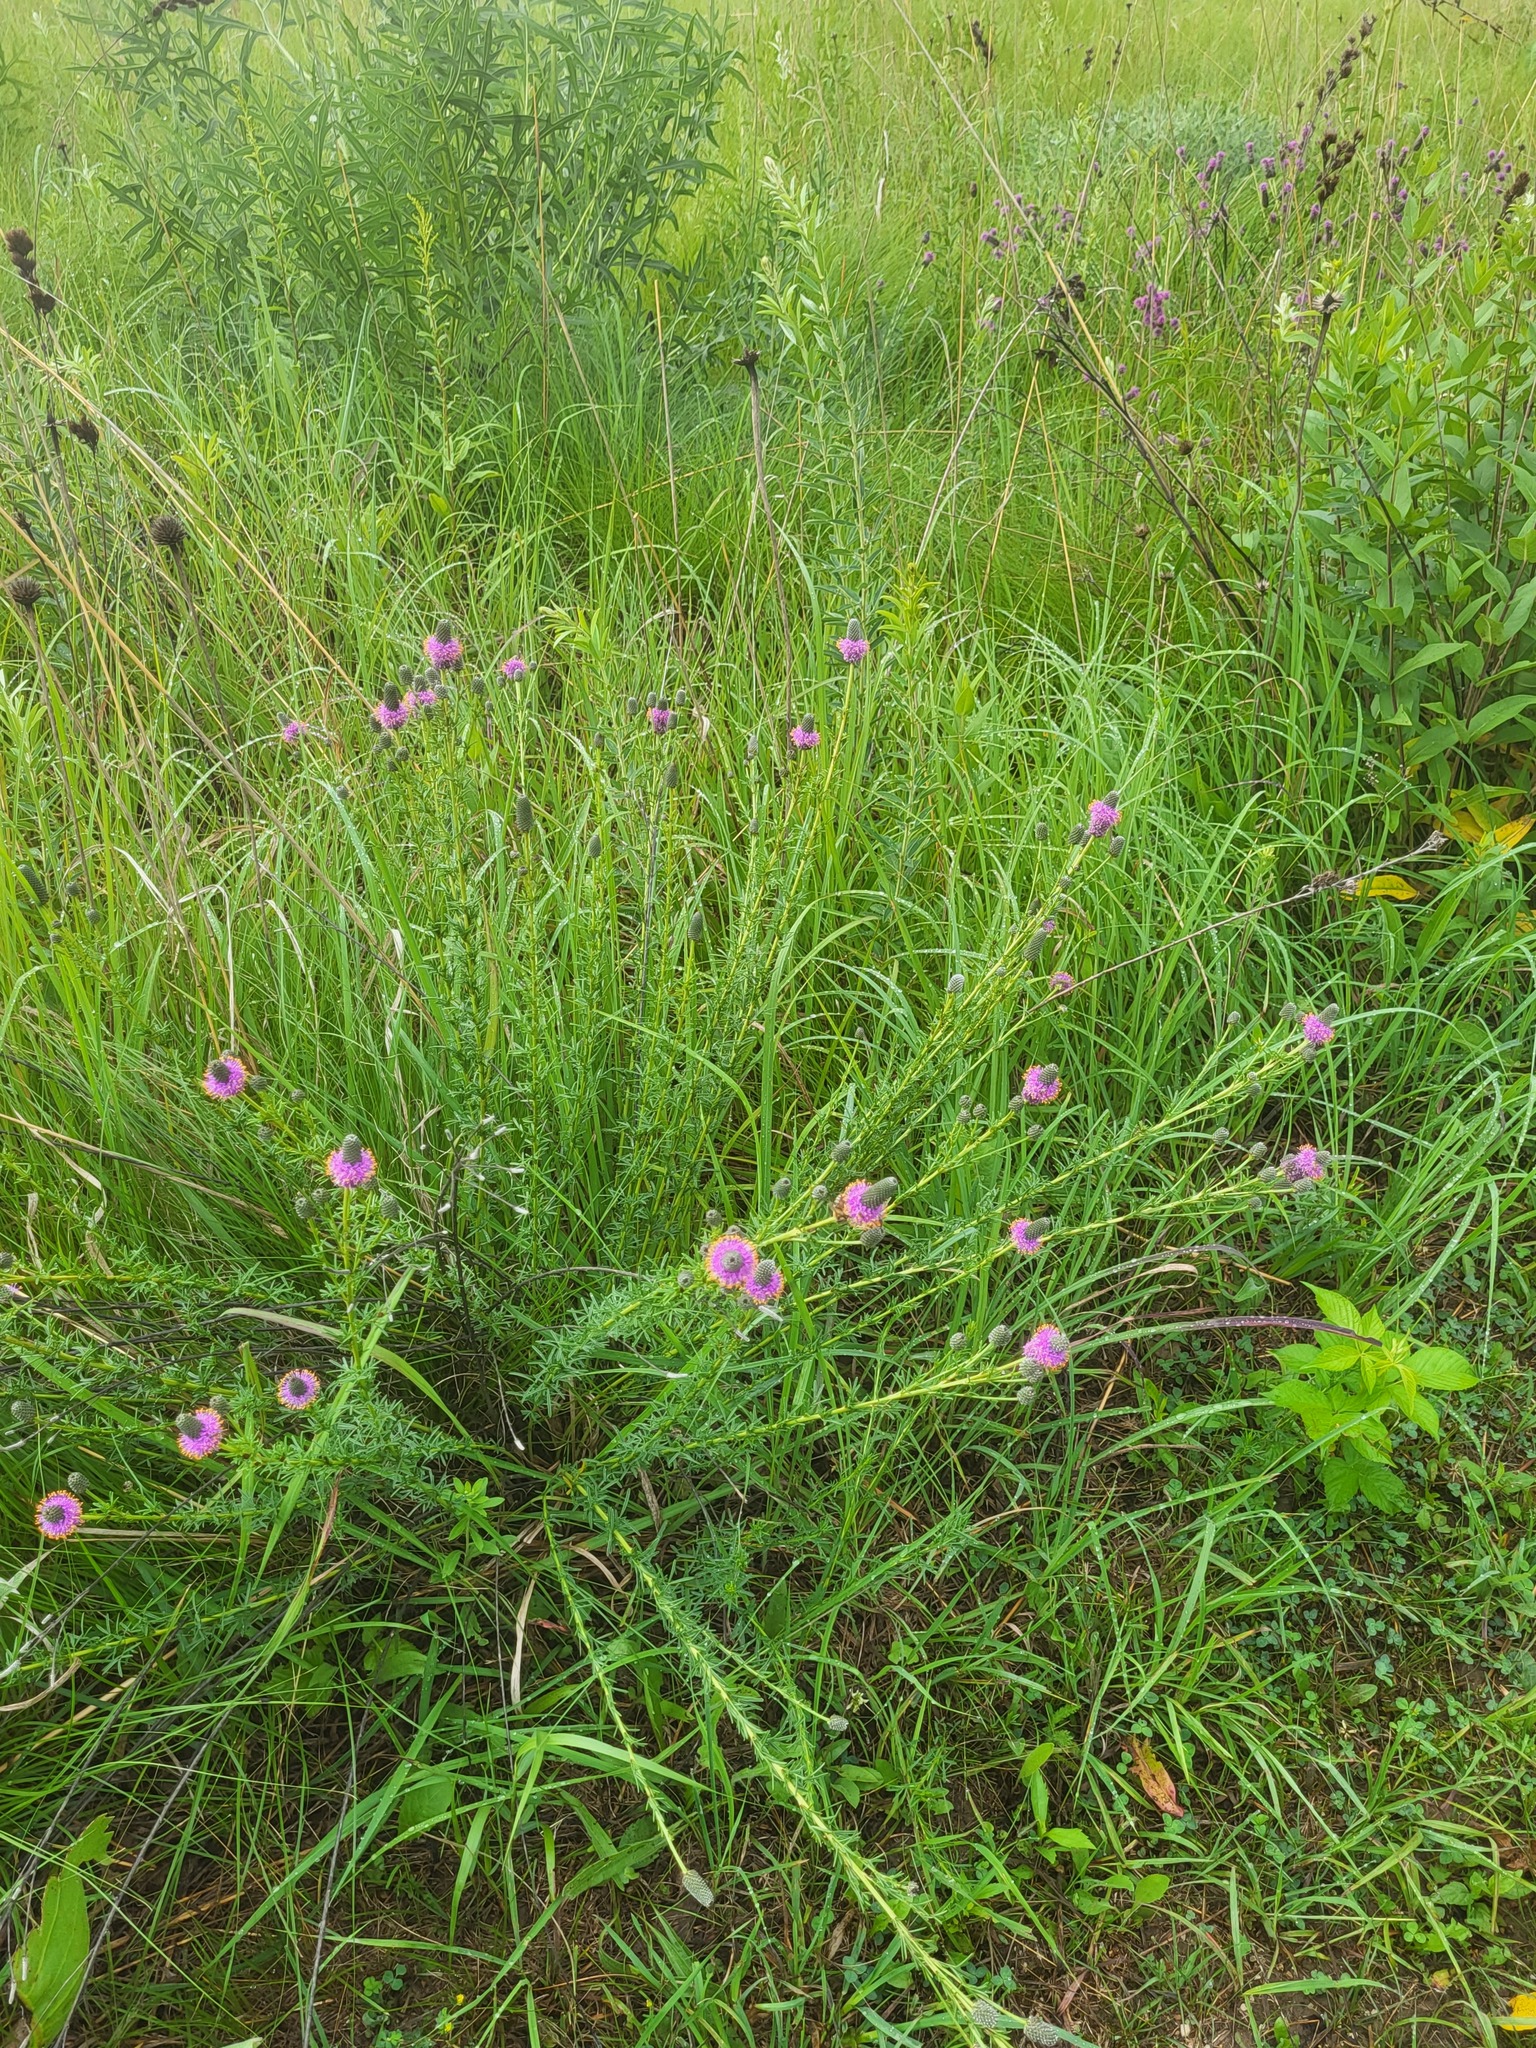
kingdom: Plantae
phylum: Tracheophyta
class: Magnoliopsida
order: Fabales
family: Fabaceae
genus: Dalea
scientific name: Dalea purpurea
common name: Purple prairie-clover
